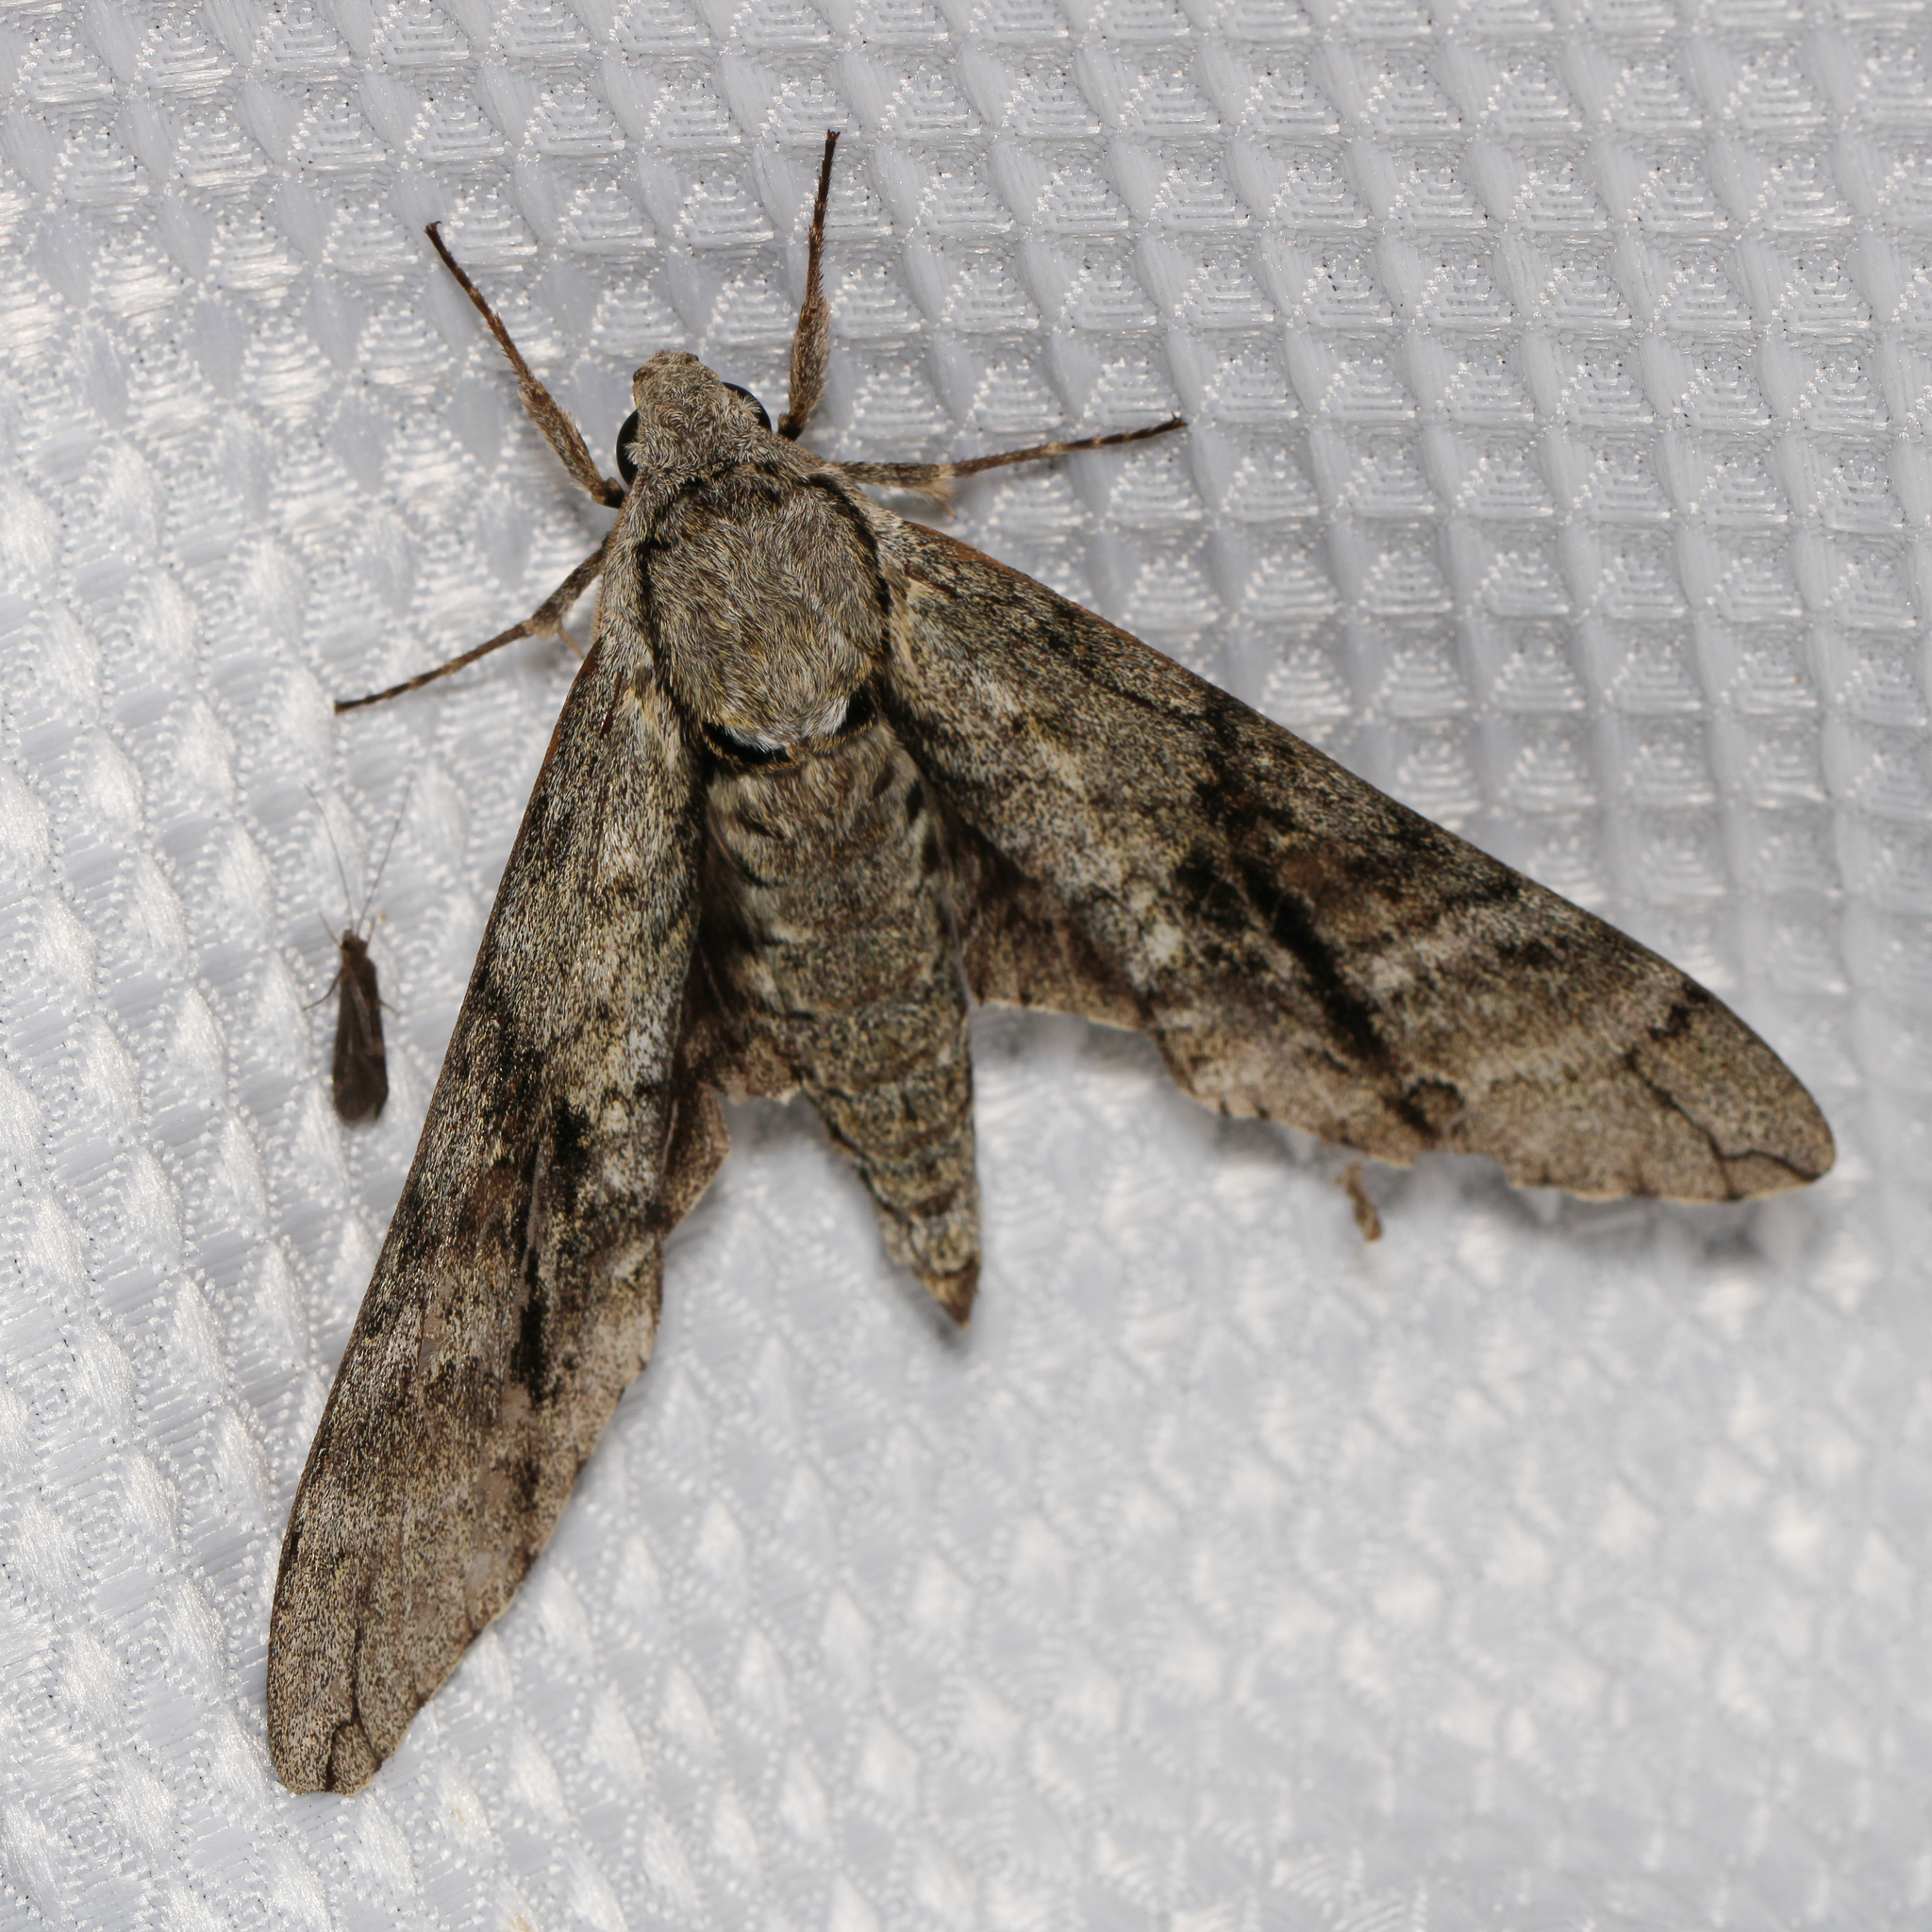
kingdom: Animalia
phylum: Arthropoda
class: Insecta
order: Lepidoptera
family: Sphingidae
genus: Manduca
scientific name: Manduca jasminearum
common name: Ash sphinx
